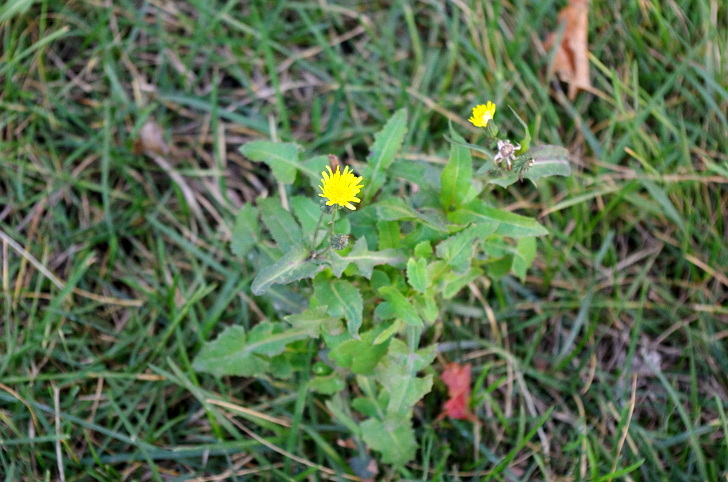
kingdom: Plantae
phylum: Tracheophyta
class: Magnoliopsida
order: Asterales
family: Asteraceae
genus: Sonchus
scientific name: Sonchus oleraceus
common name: Common sowthistle
